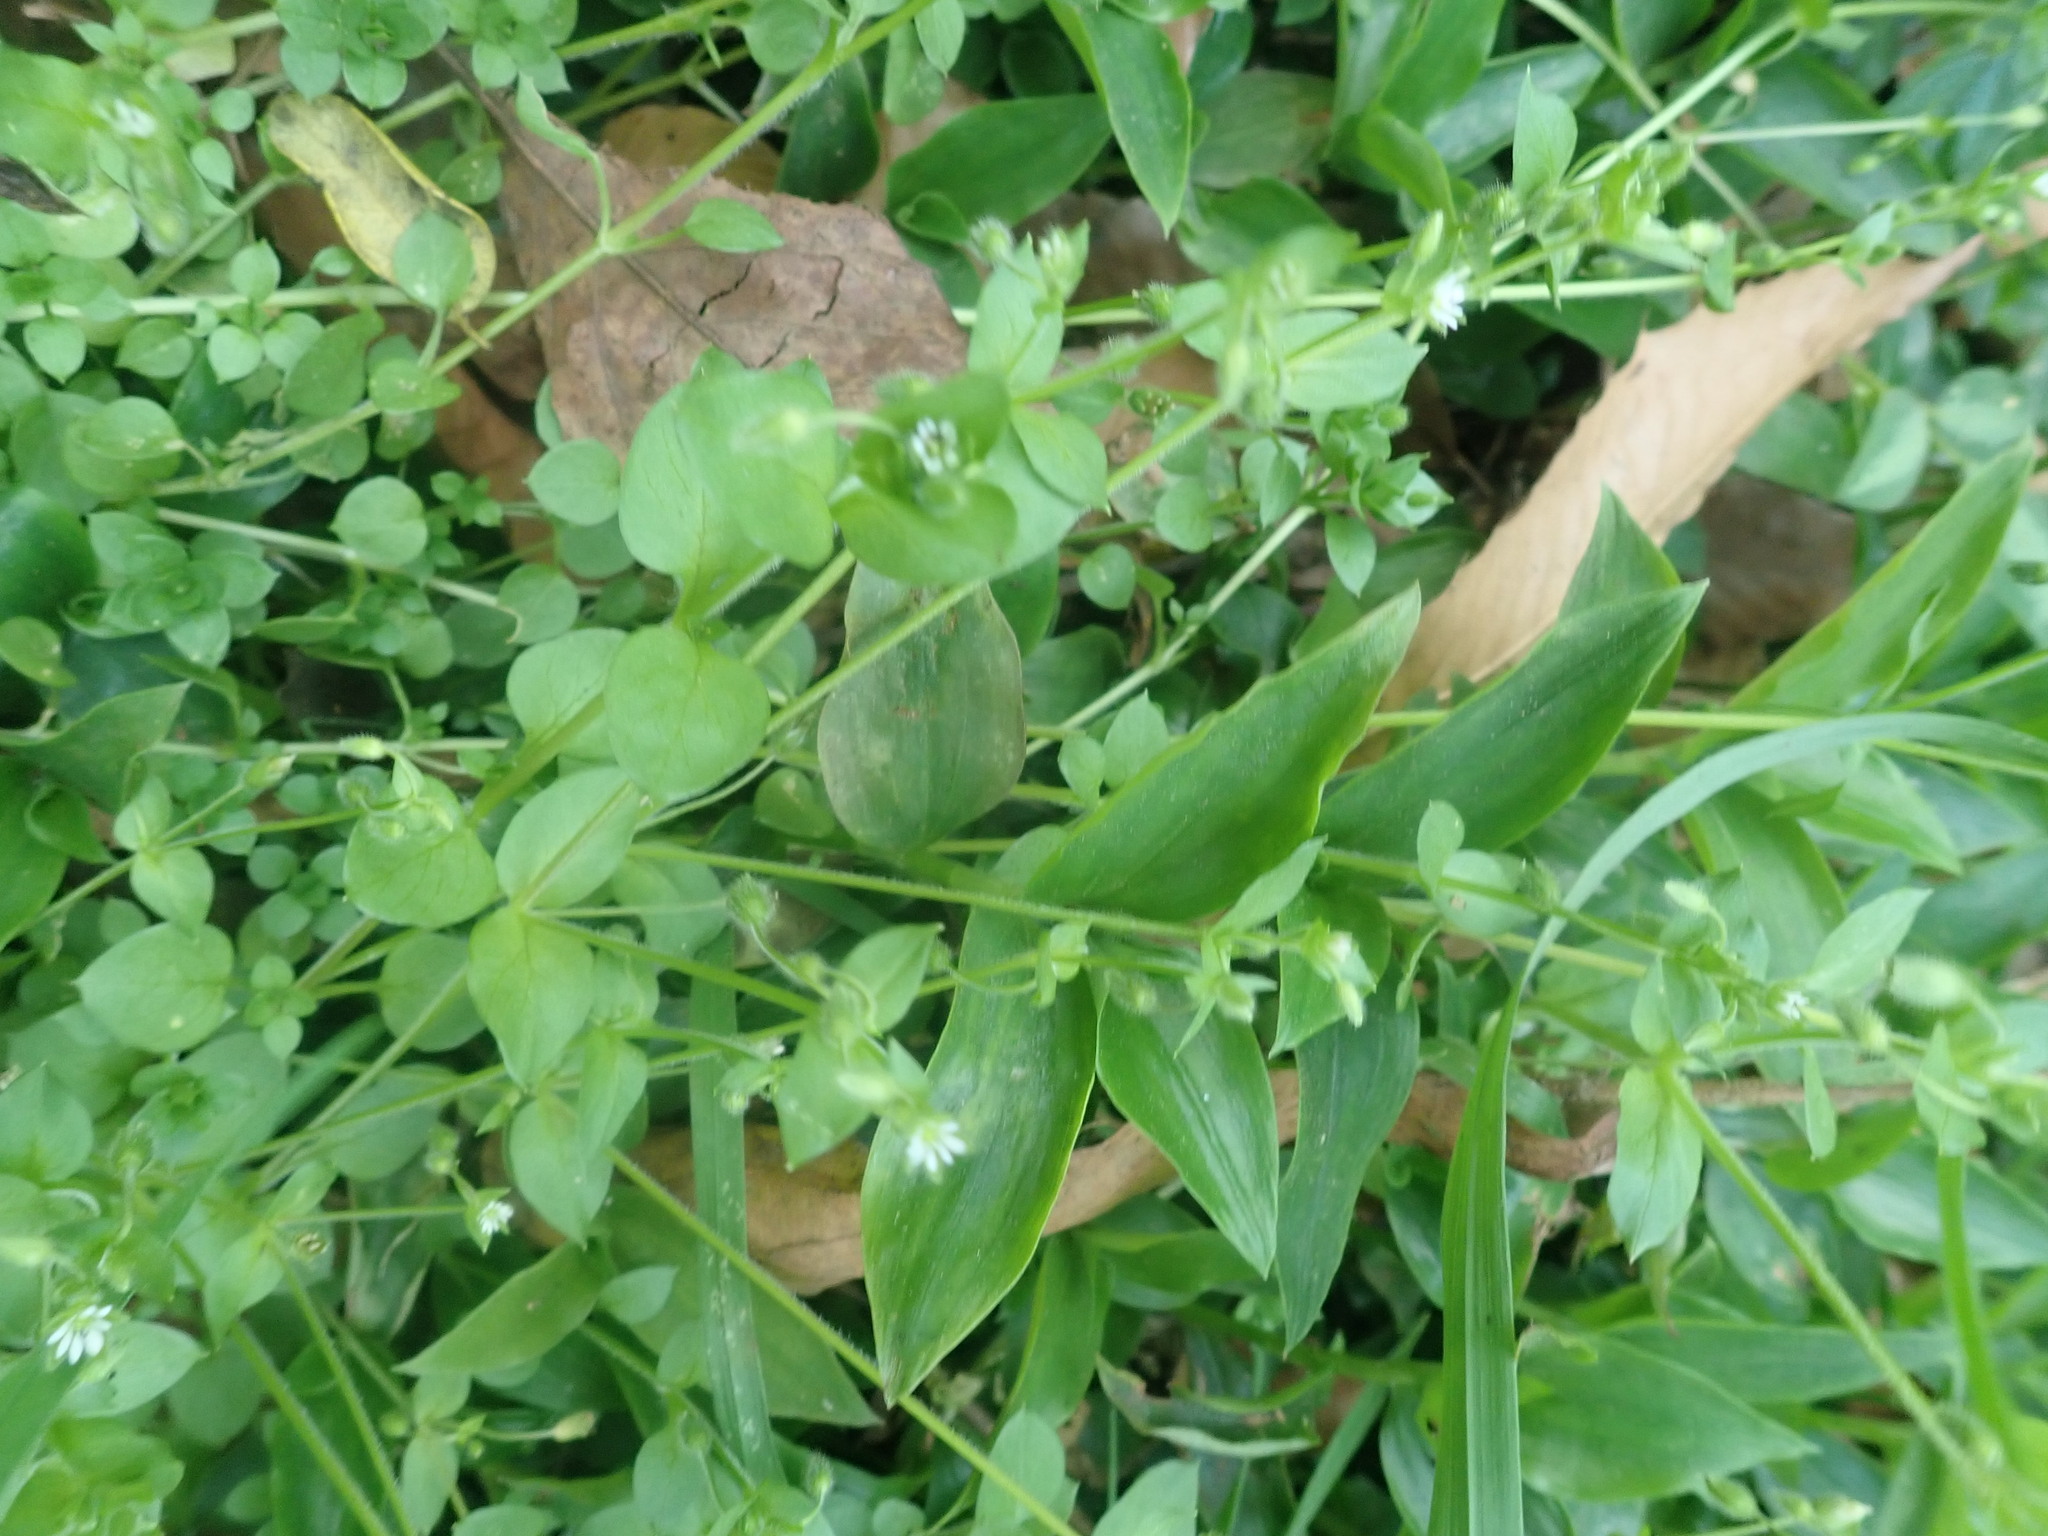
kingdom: Plantae
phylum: Tracheophyta
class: Magnoliopsida
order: Caryophyllales
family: Caryophyllaceae
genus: Stellaria
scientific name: Stellaria media
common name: Common chickweed
